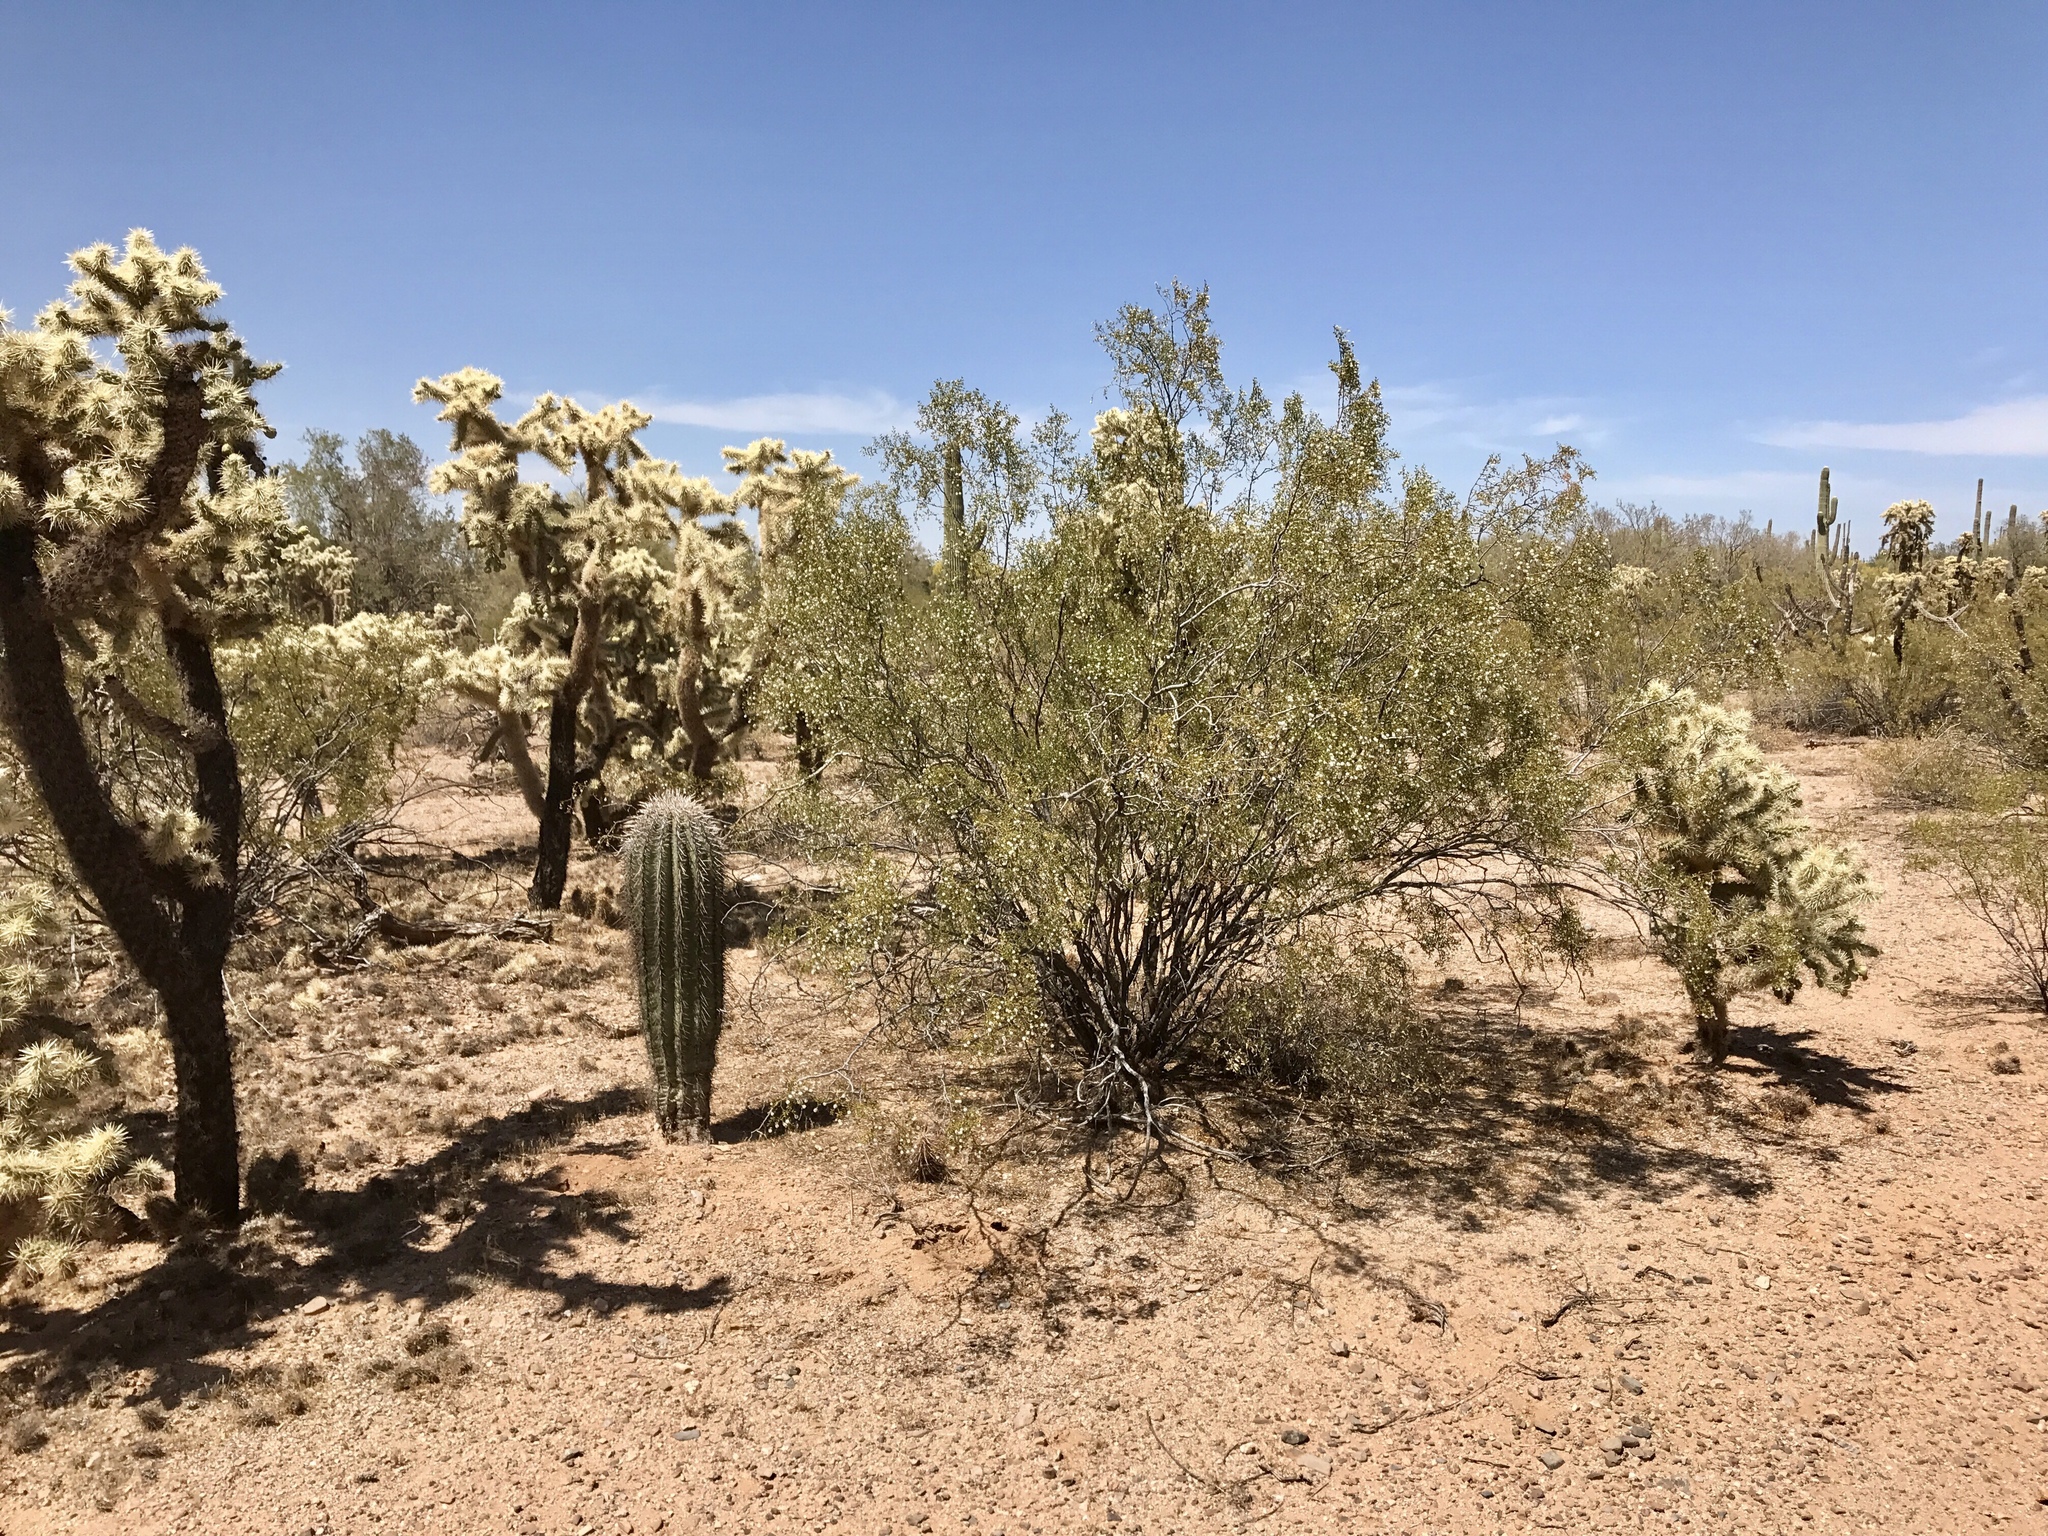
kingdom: Plantae
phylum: Tracheophyta
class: Magnoliopsida
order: Zygophyllales
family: Zygophyllaceae
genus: Larrea
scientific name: Larrea tridentata
